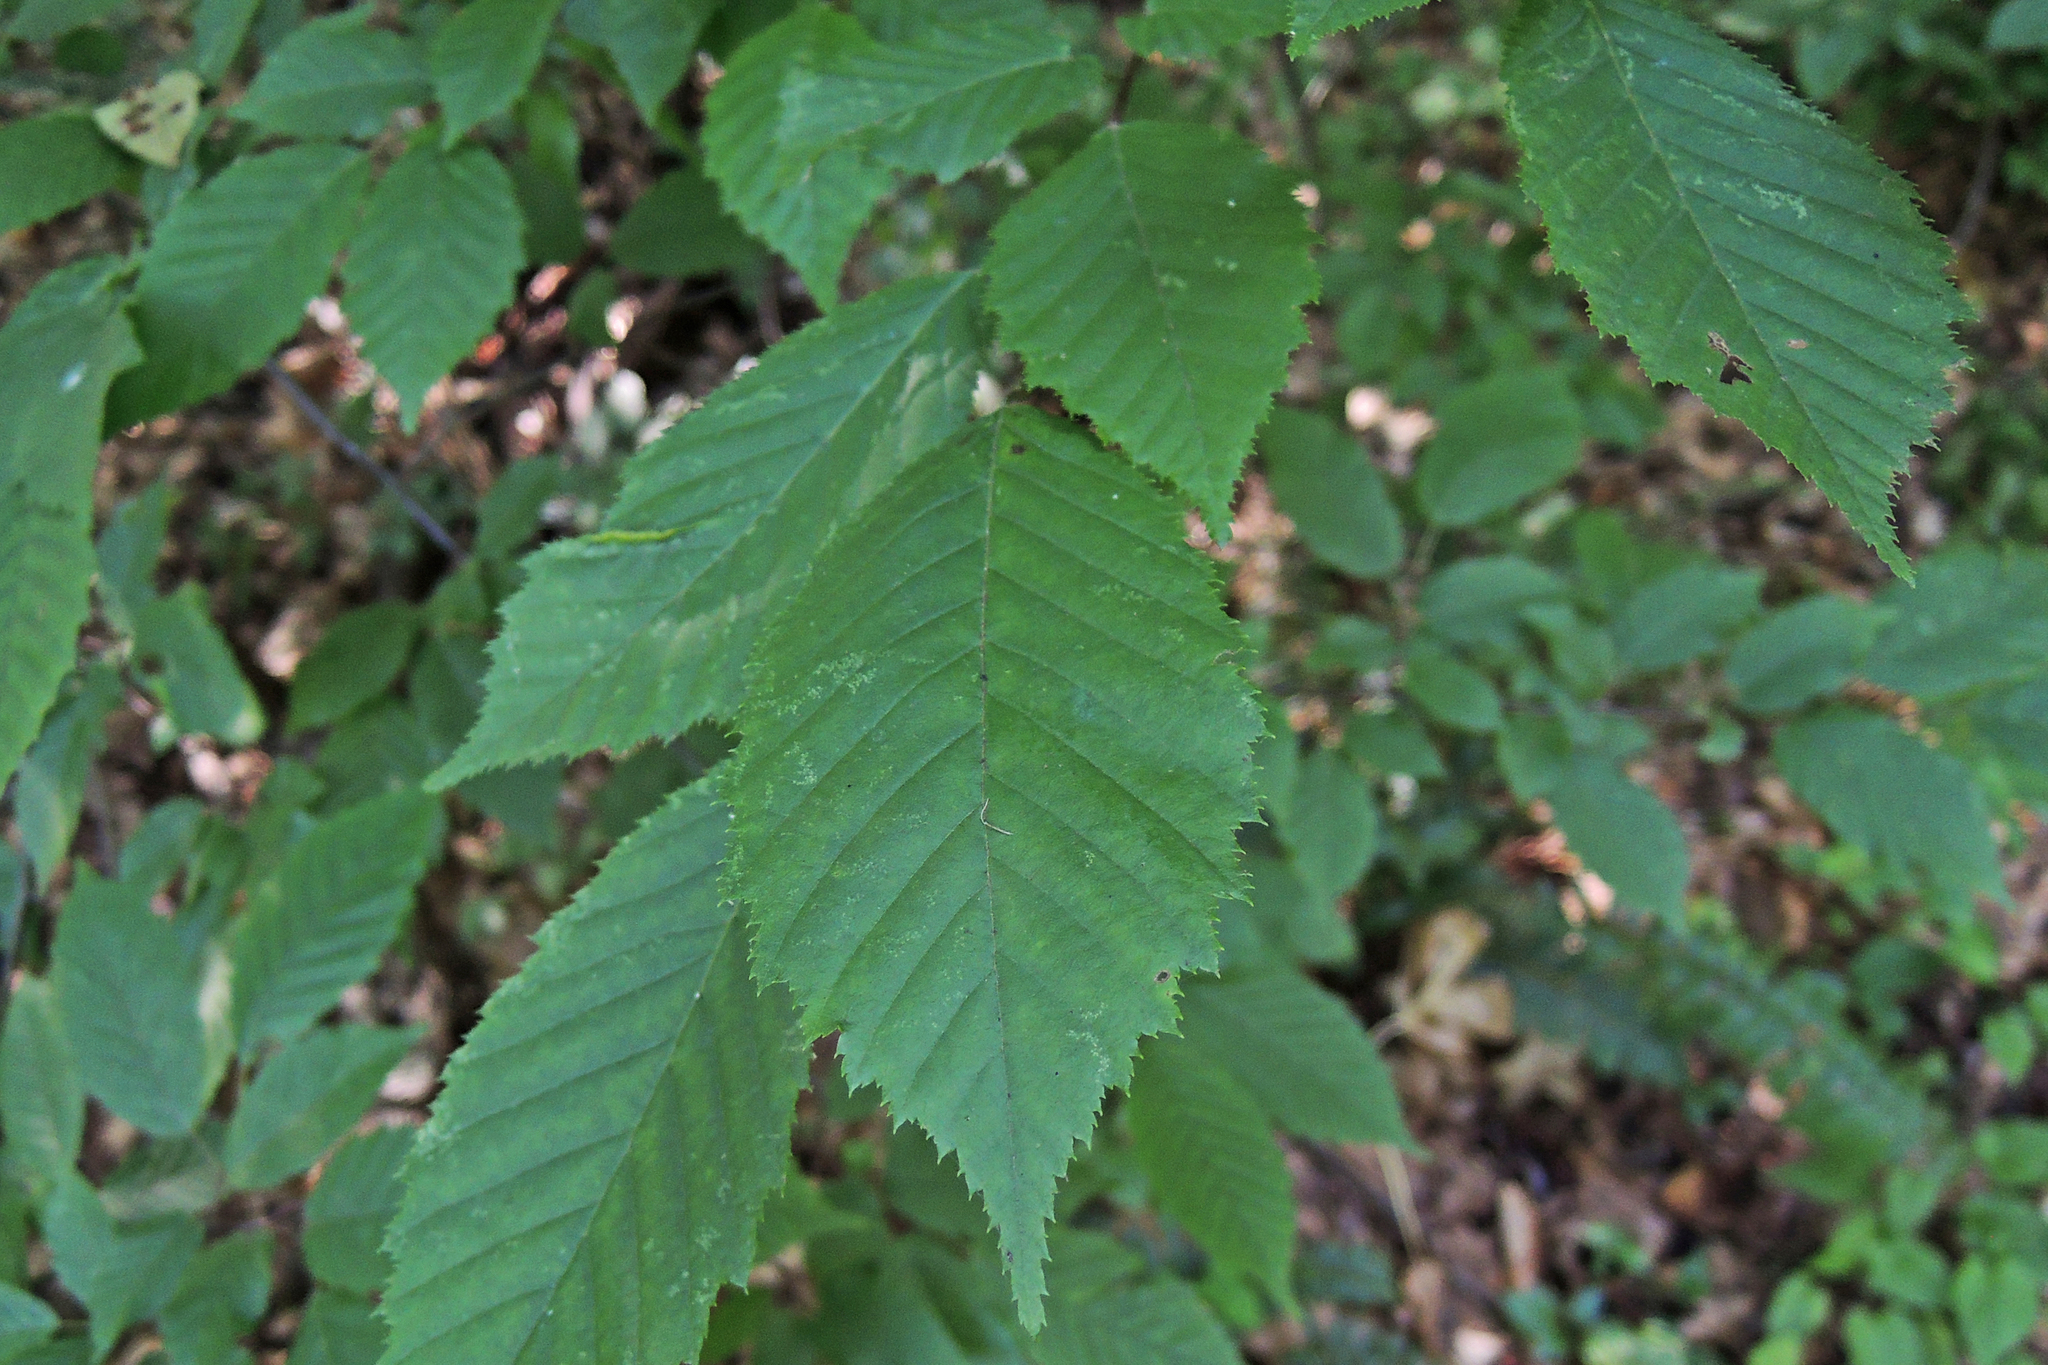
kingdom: Plantae
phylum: Tracheophyta
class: Magnoliopsida
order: Fagales
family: Betulaceae
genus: Carpinus
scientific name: Carpinus caroliniana
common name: American hornbeam
